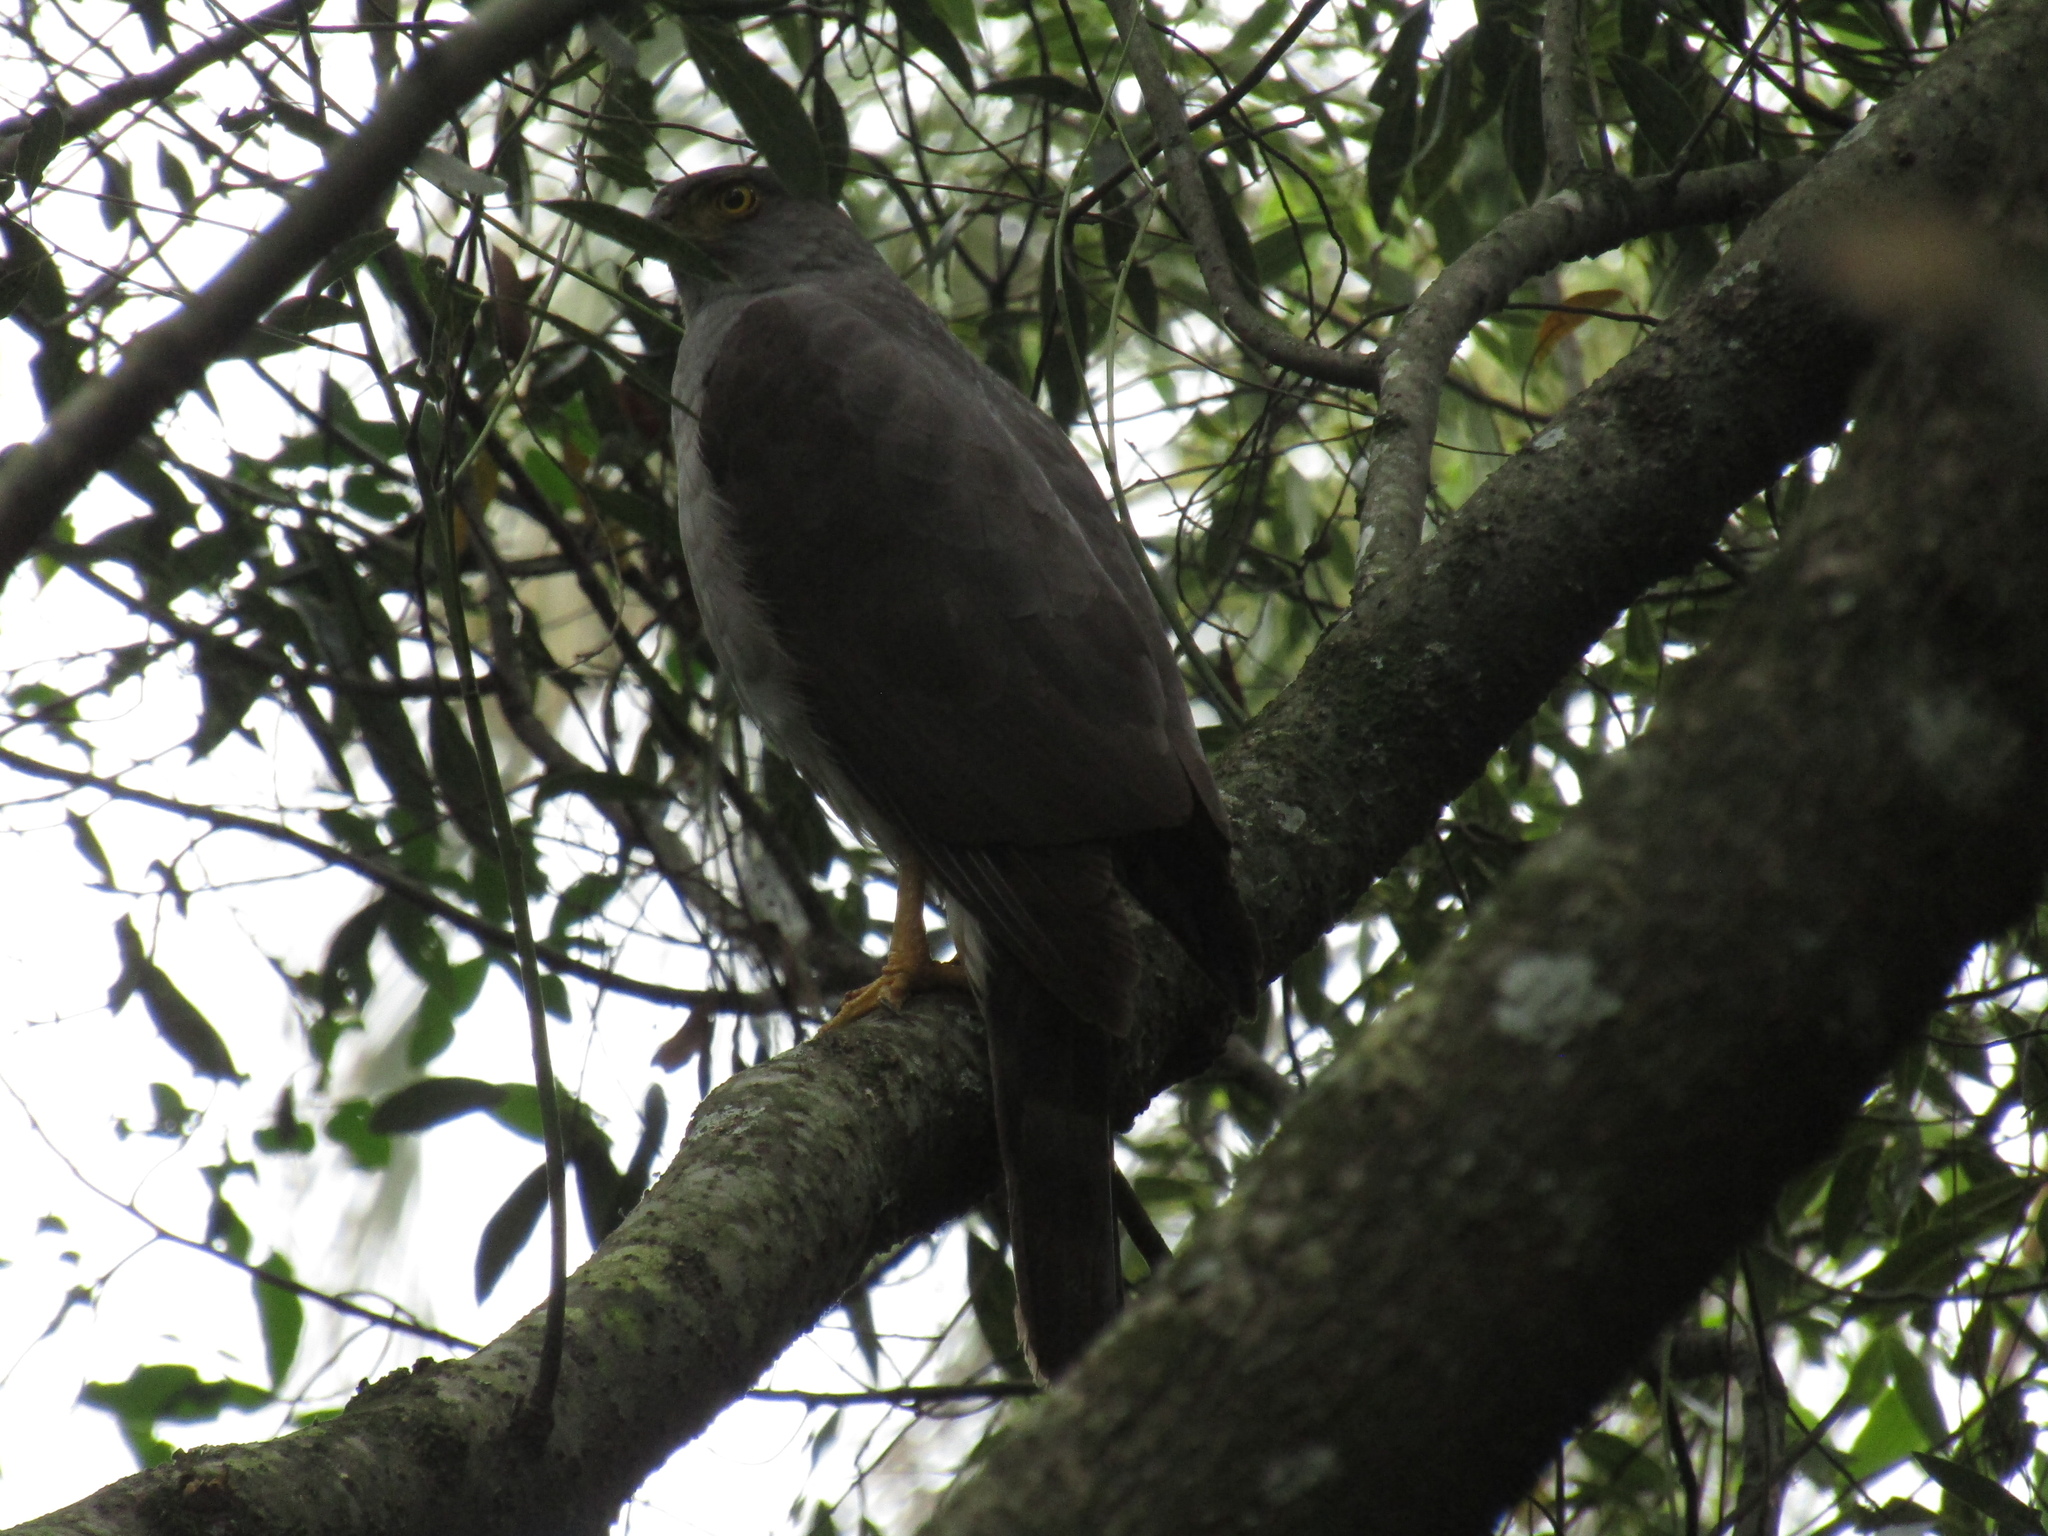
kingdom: Animalia
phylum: Chordata
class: Aves
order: Accipitriformes
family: Accipitridae
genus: Accipiter
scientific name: Accipiter bicolor
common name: Bicolored hawk
